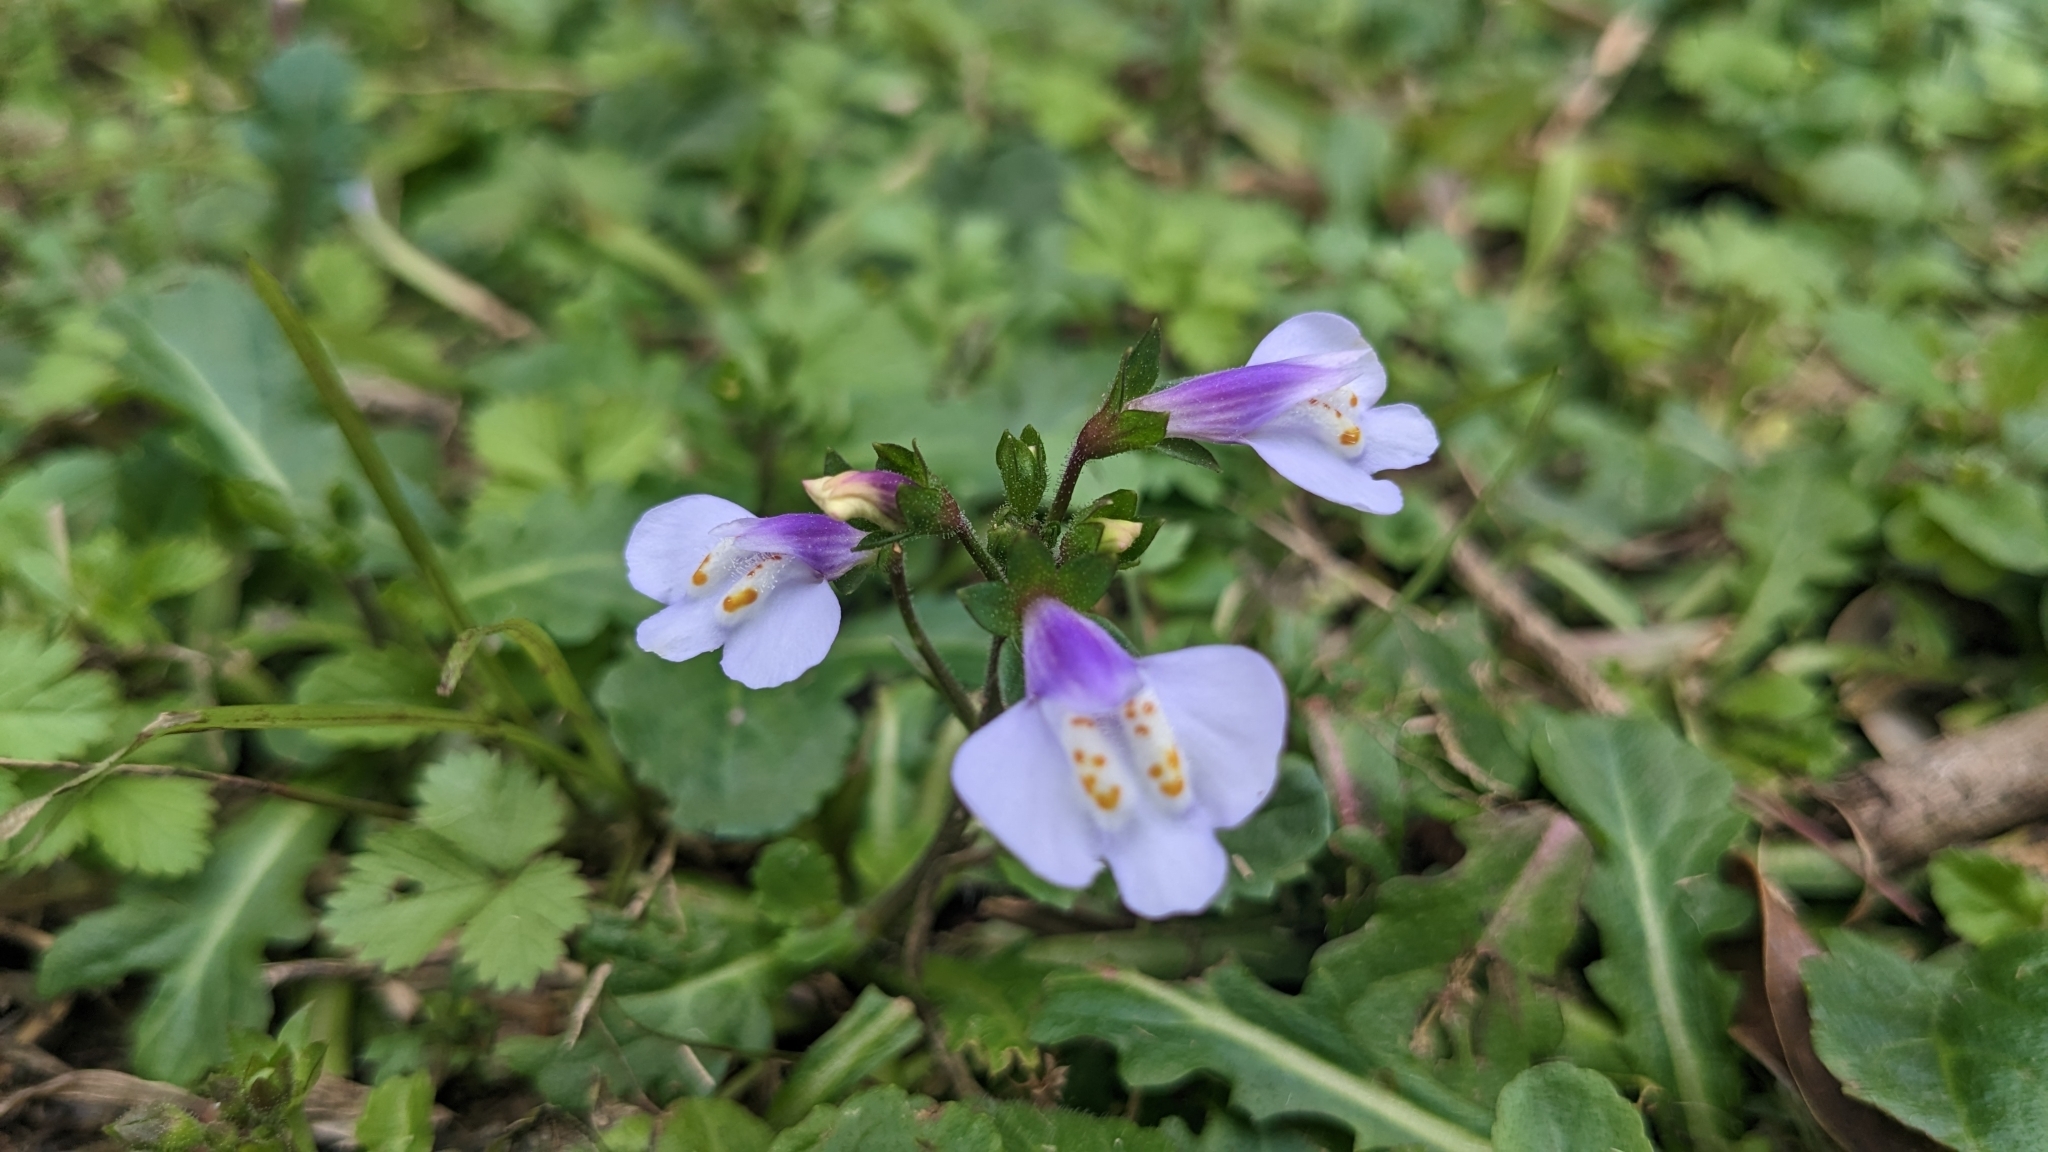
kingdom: Plantae
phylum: Tracheophyta
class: Magnoliopsida
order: Lamiales
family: Mazaceae
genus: Mazus
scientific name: Mazus fauriei
